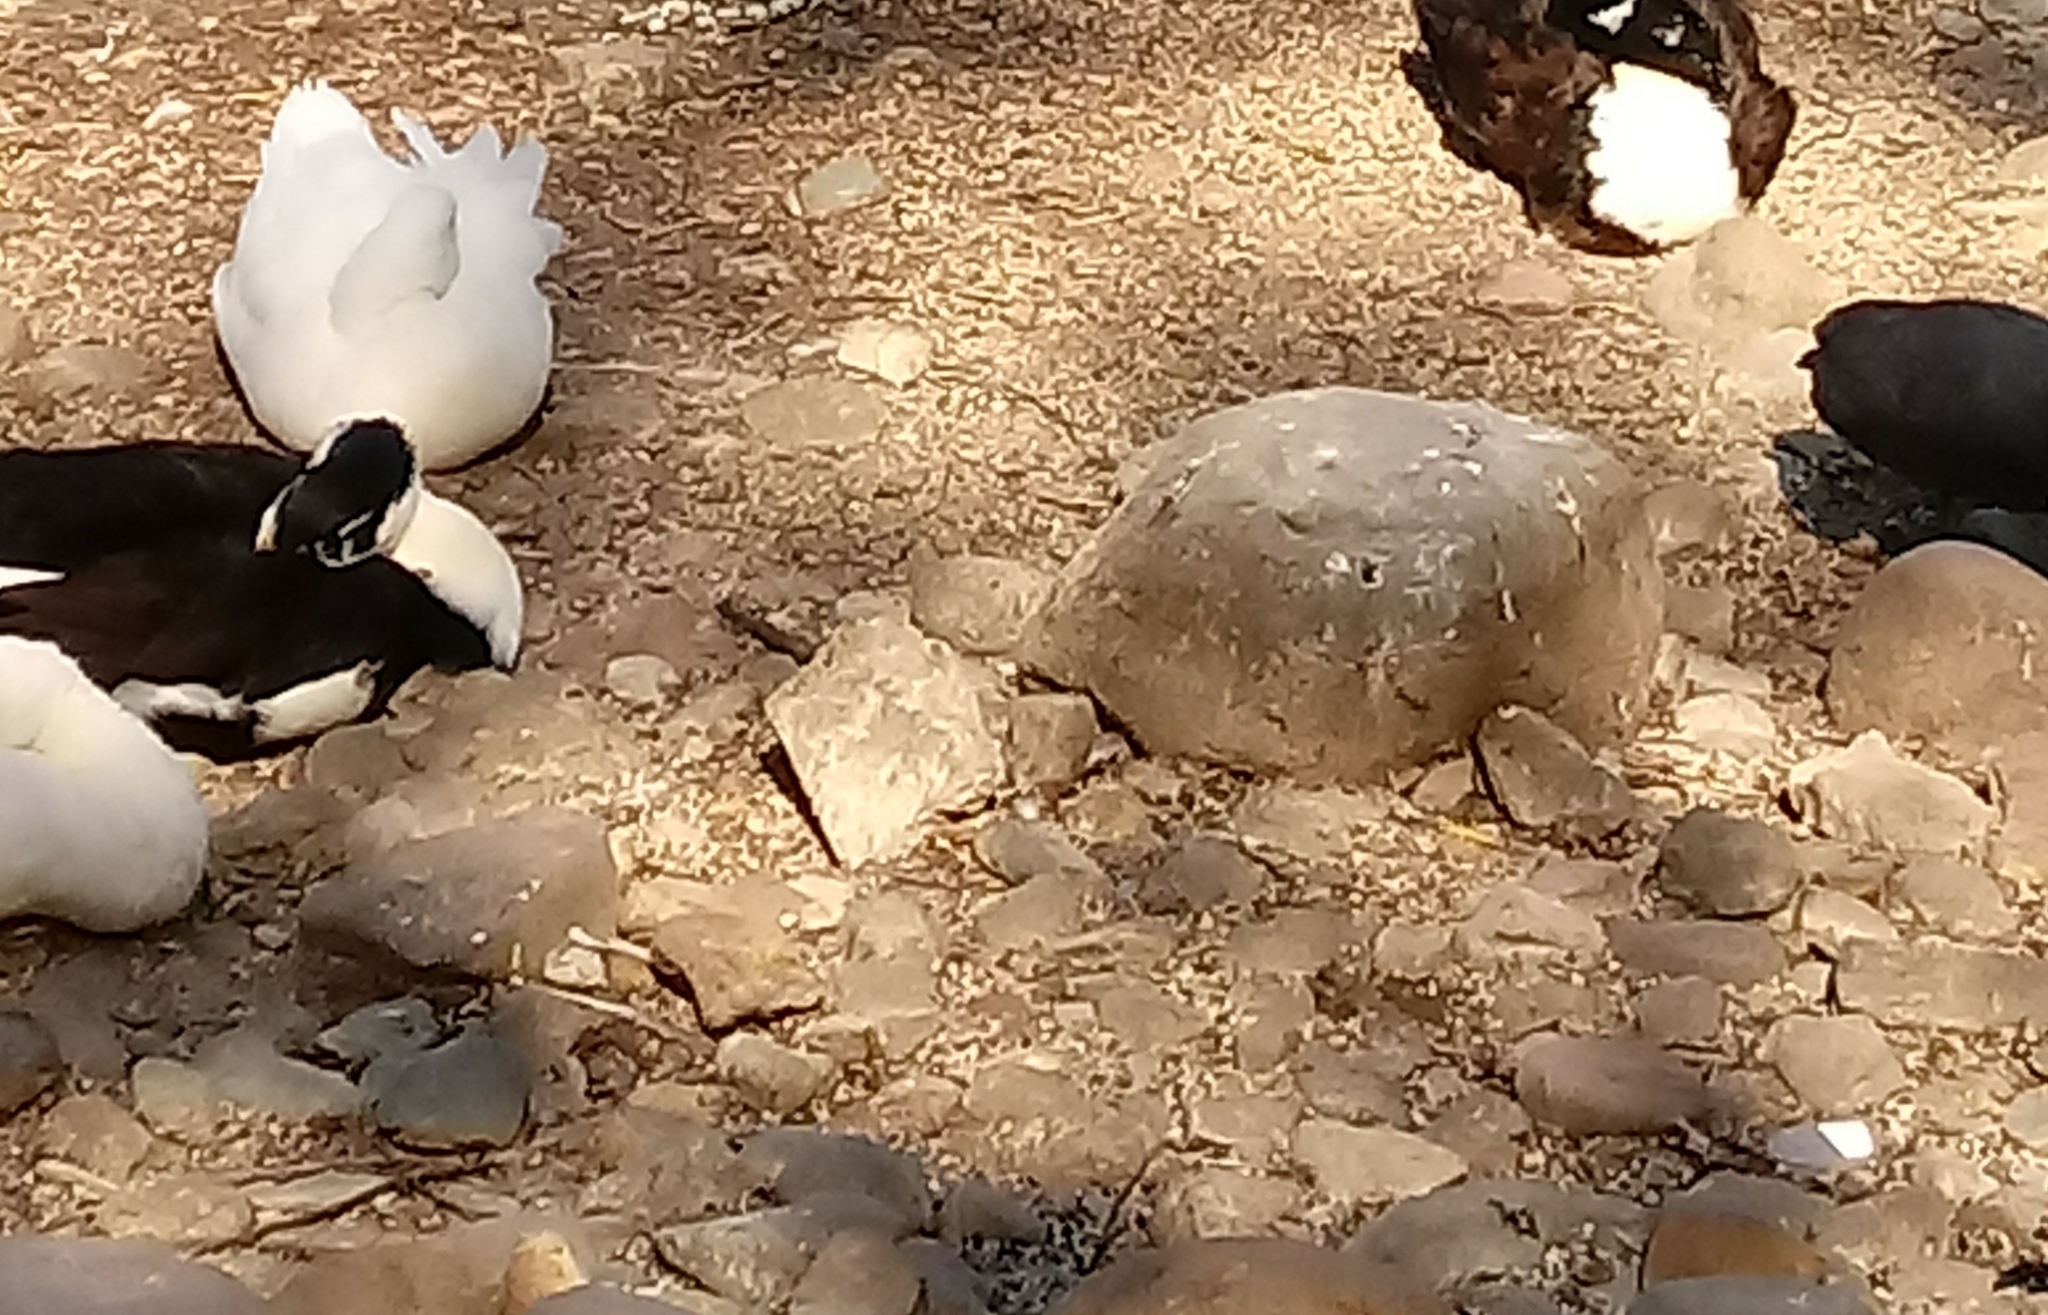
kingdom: Animalia
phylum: Chordata
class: Aves
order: Anseriformes
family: Anatidae
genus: Anas
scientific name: Anas platyrhynchos
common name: Mallard
